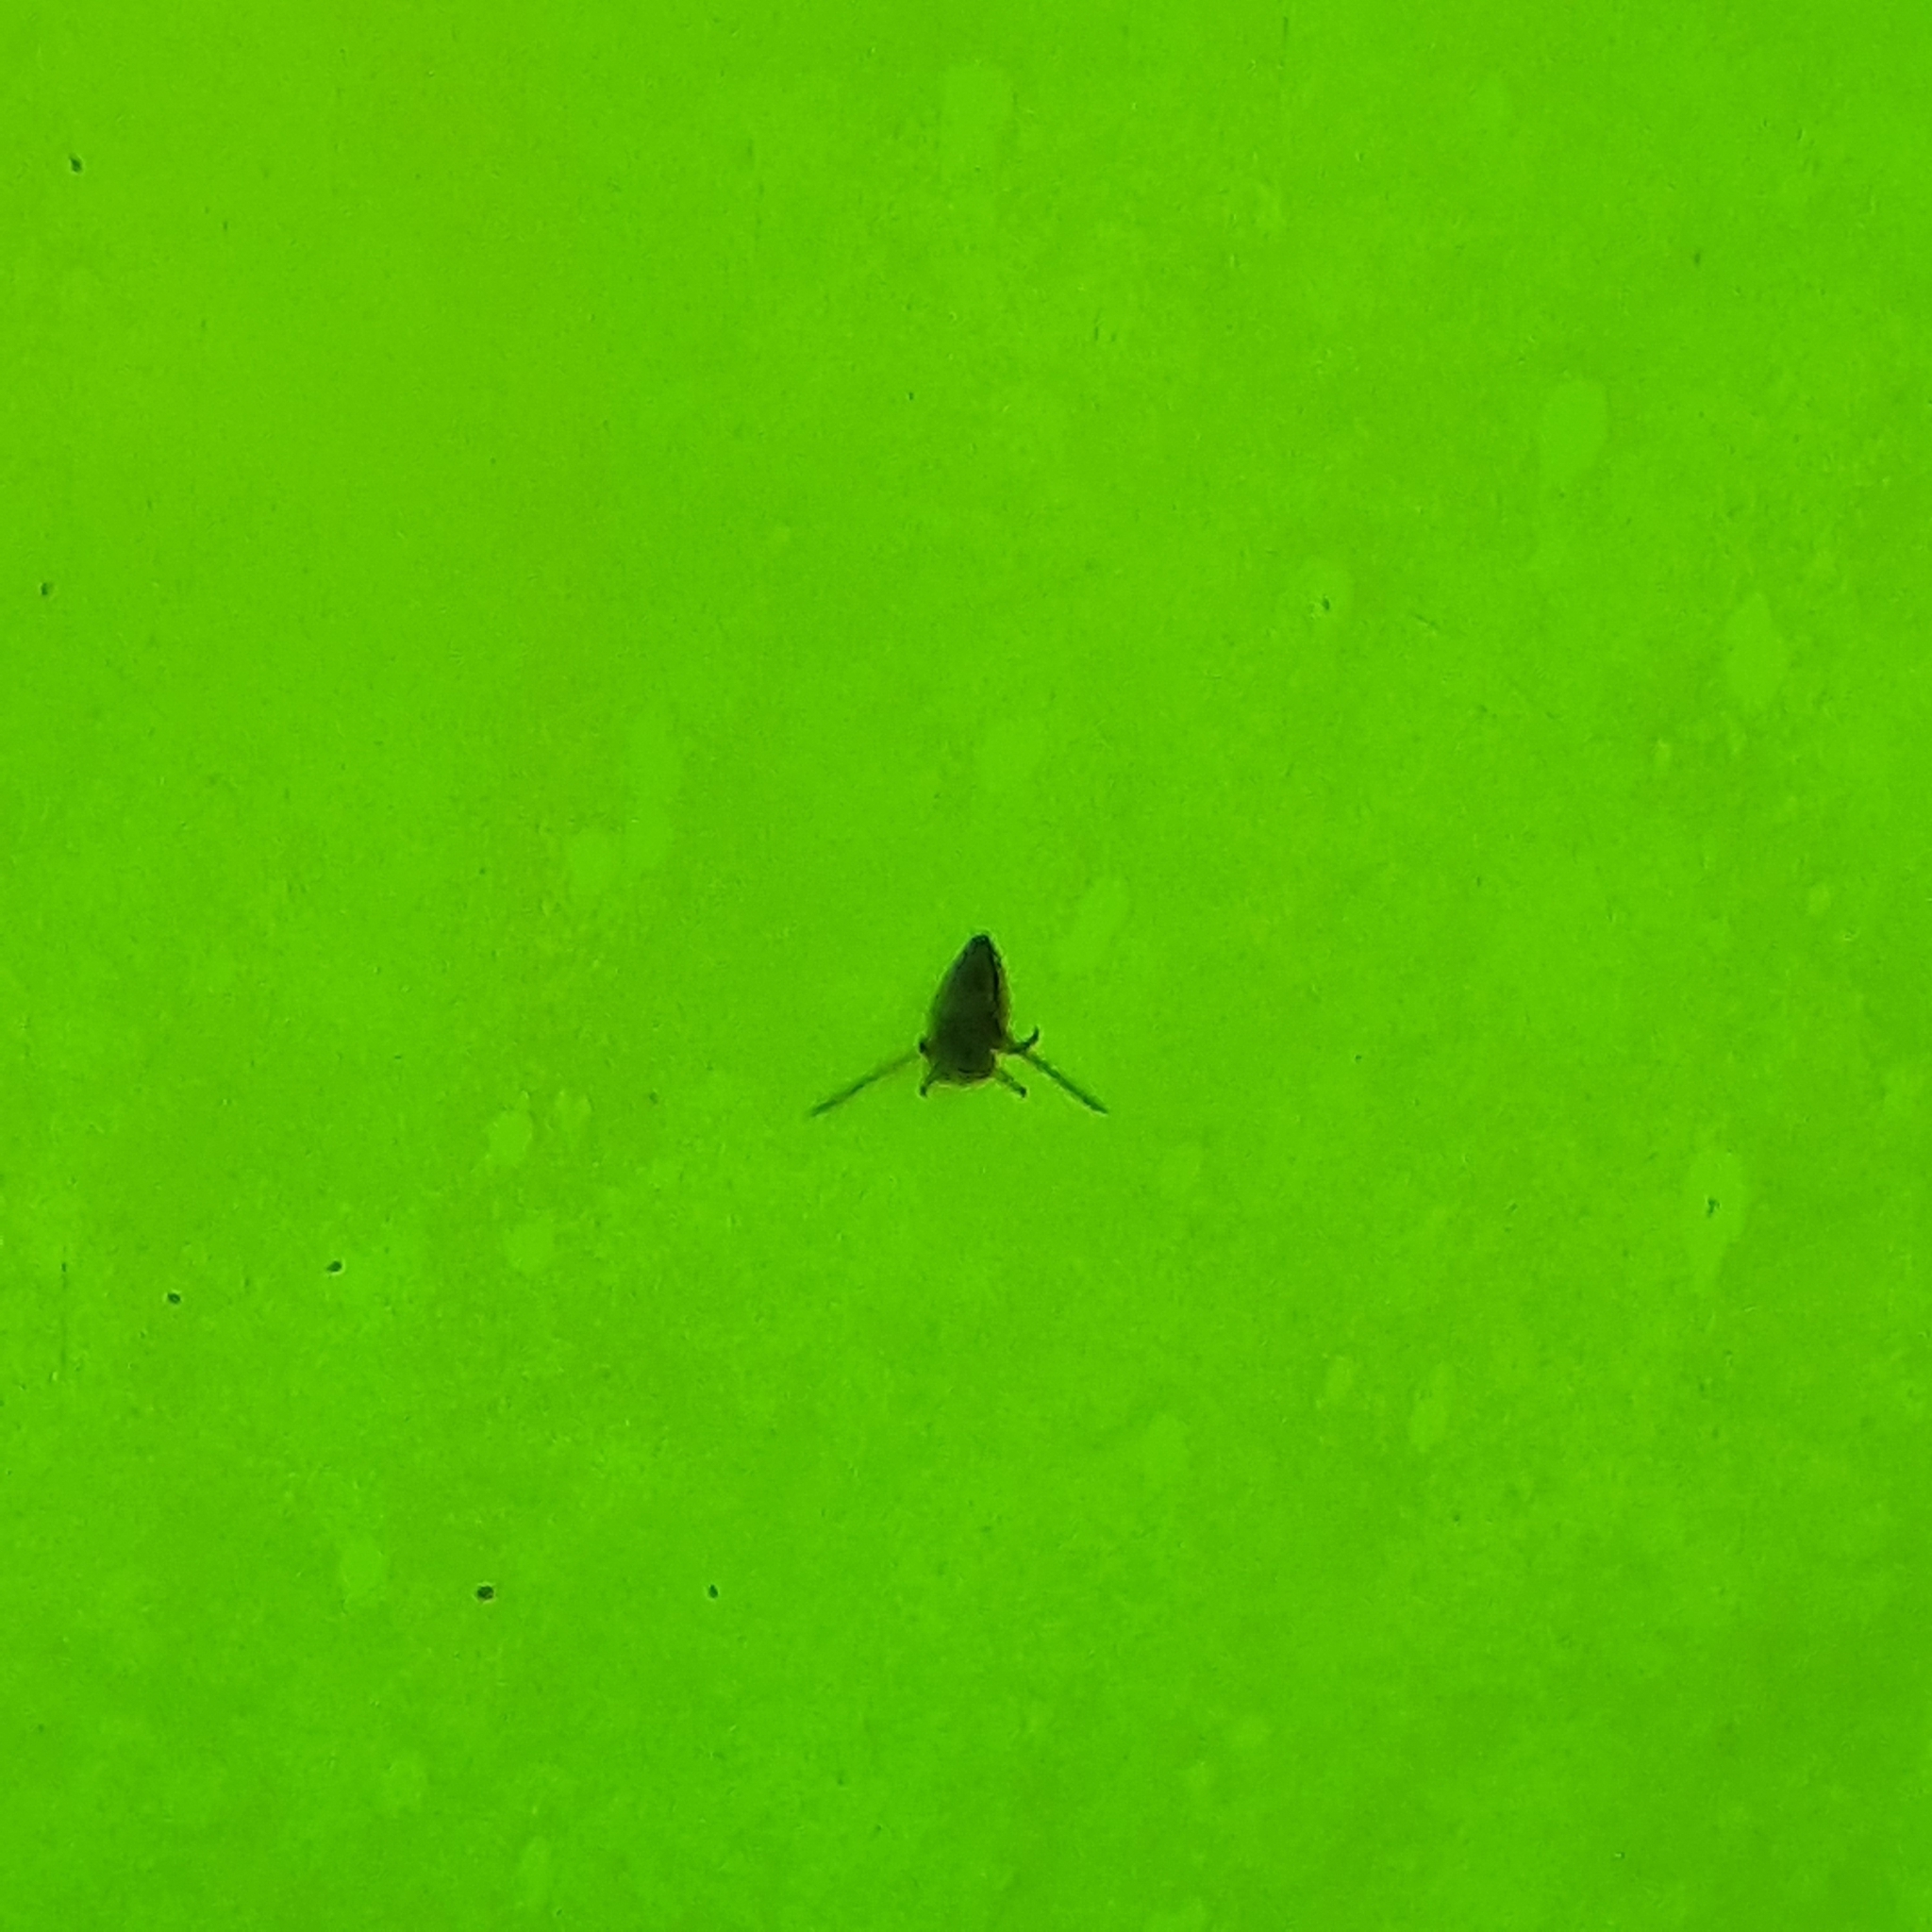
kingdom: Animalia
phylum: Arthropoda
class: Insecta
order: Hemiptera
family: Notonectidae
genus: Notonecta
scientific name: Notonecta
